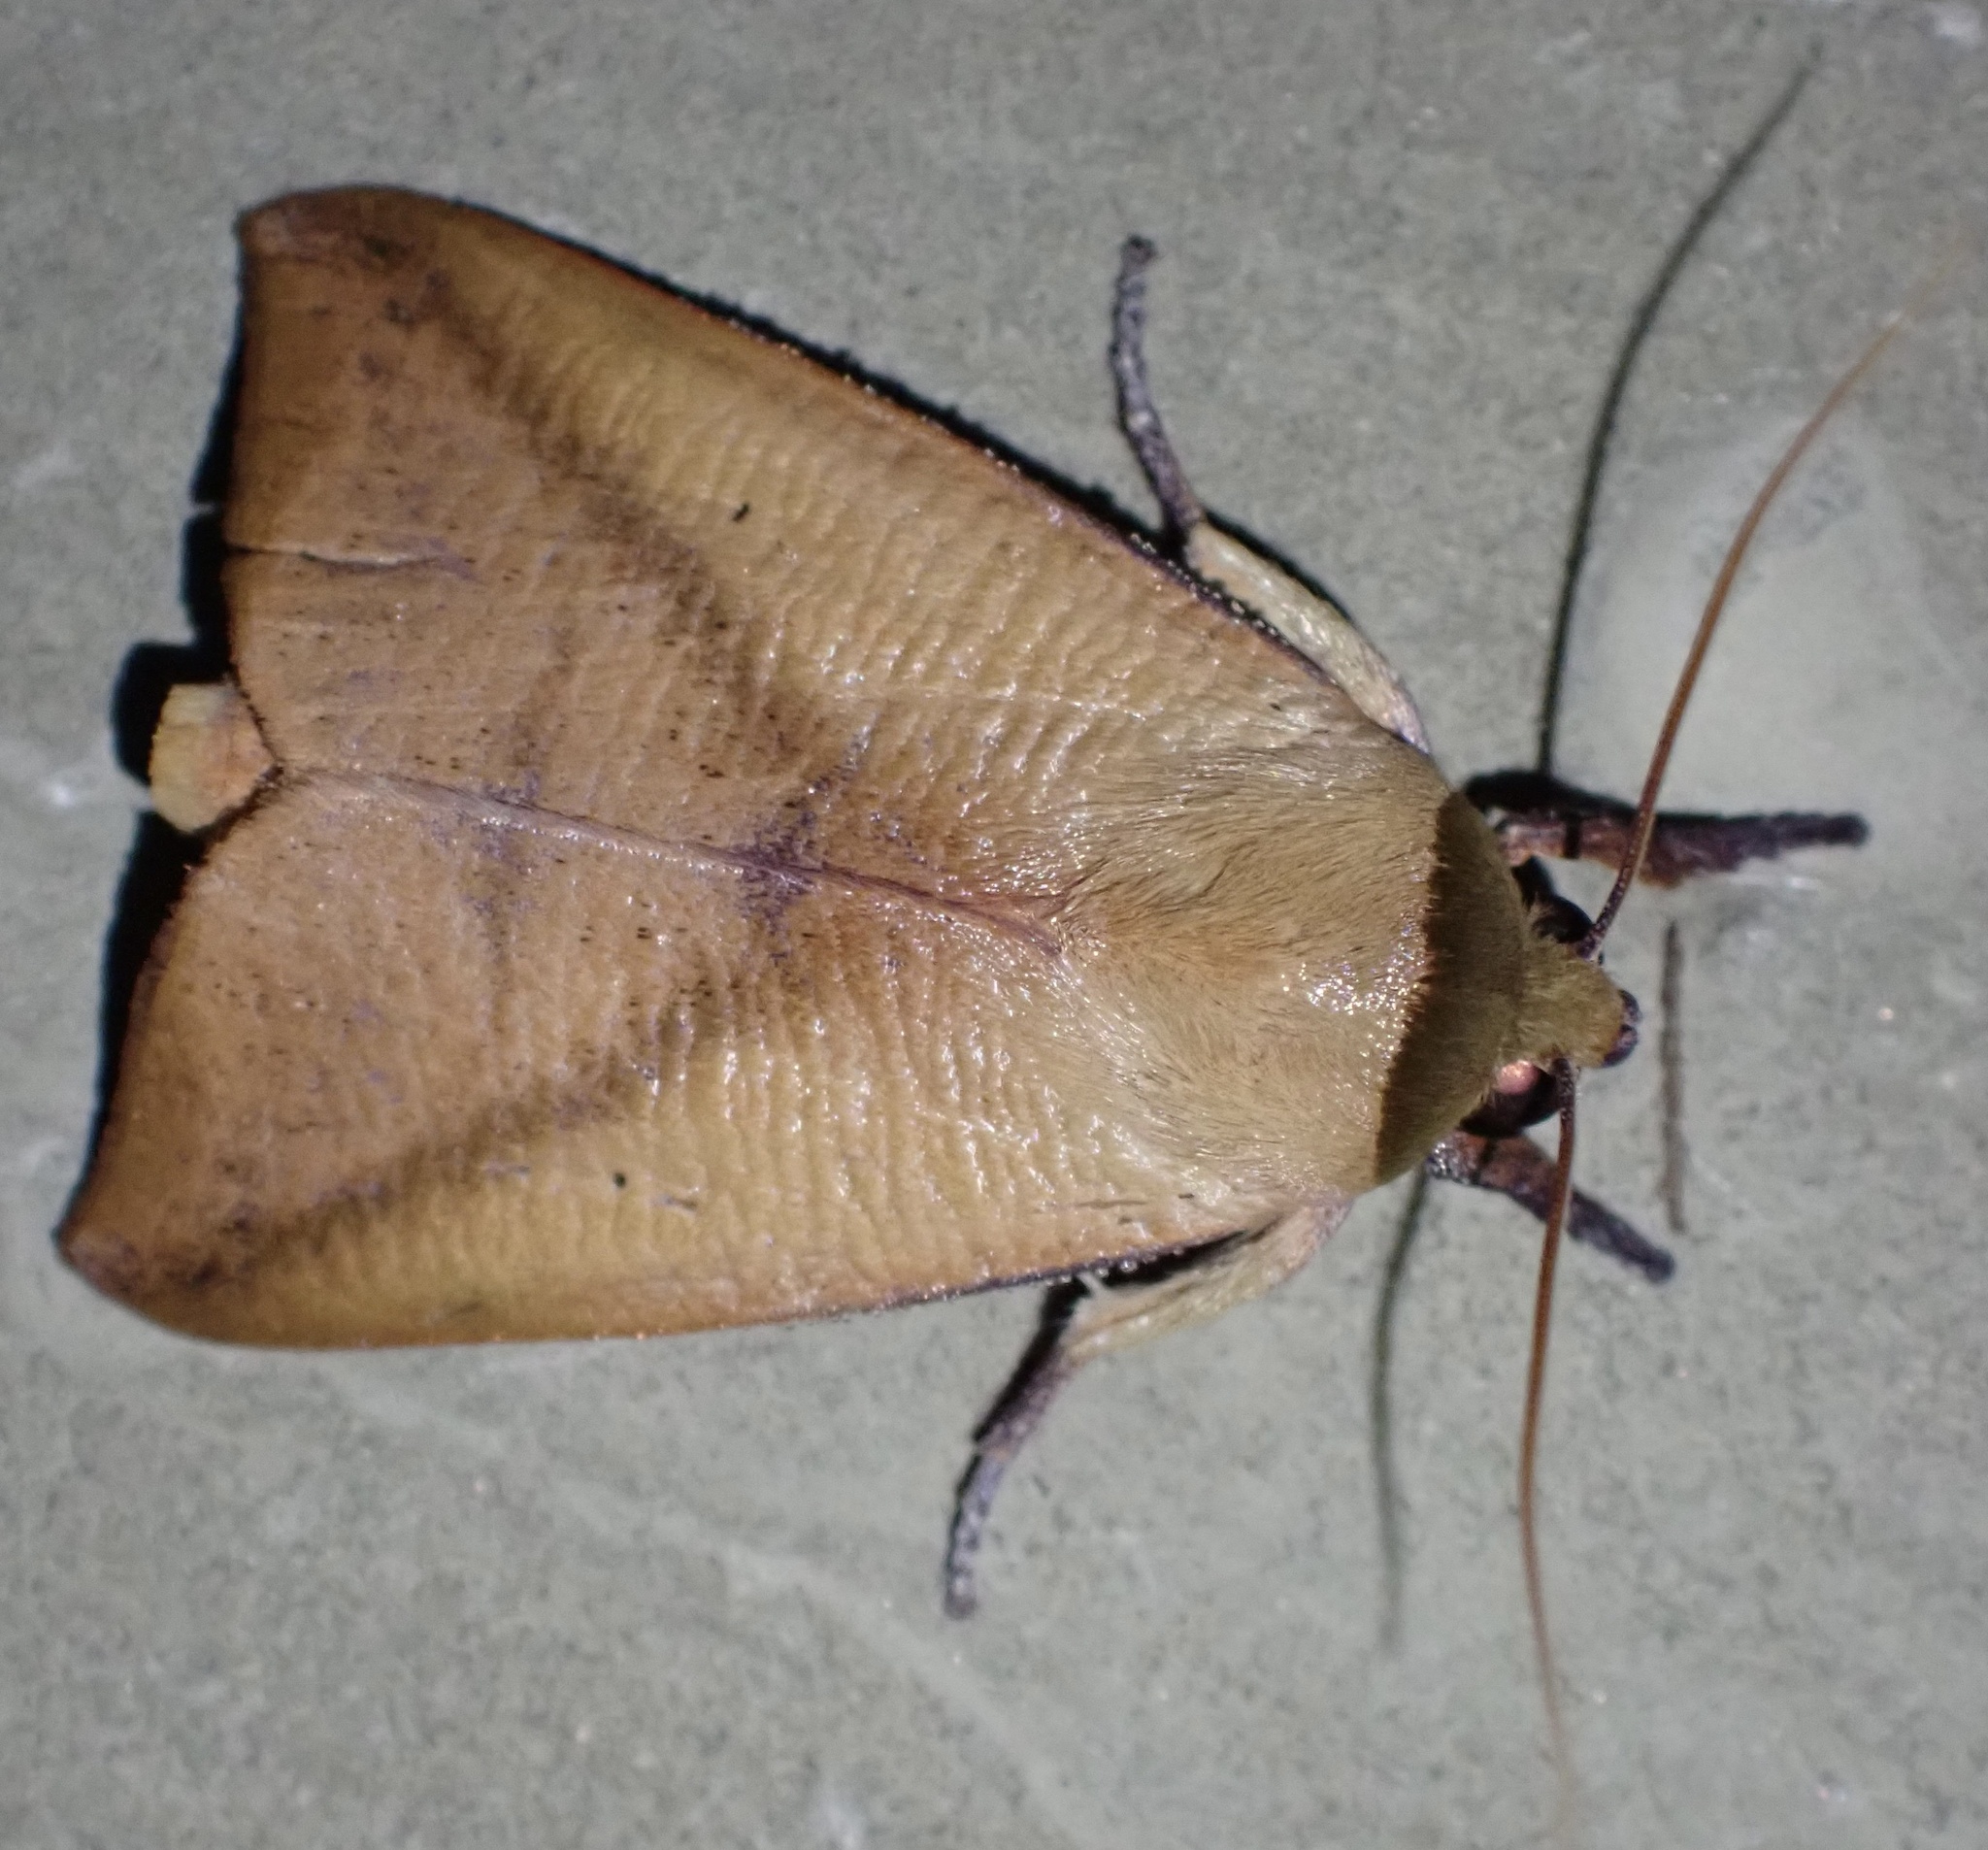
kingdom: Animalia
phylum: Arthropoda
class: Insecta
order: Lepidoptera
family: Nolidae
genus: Carea
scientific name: Carea pratti
